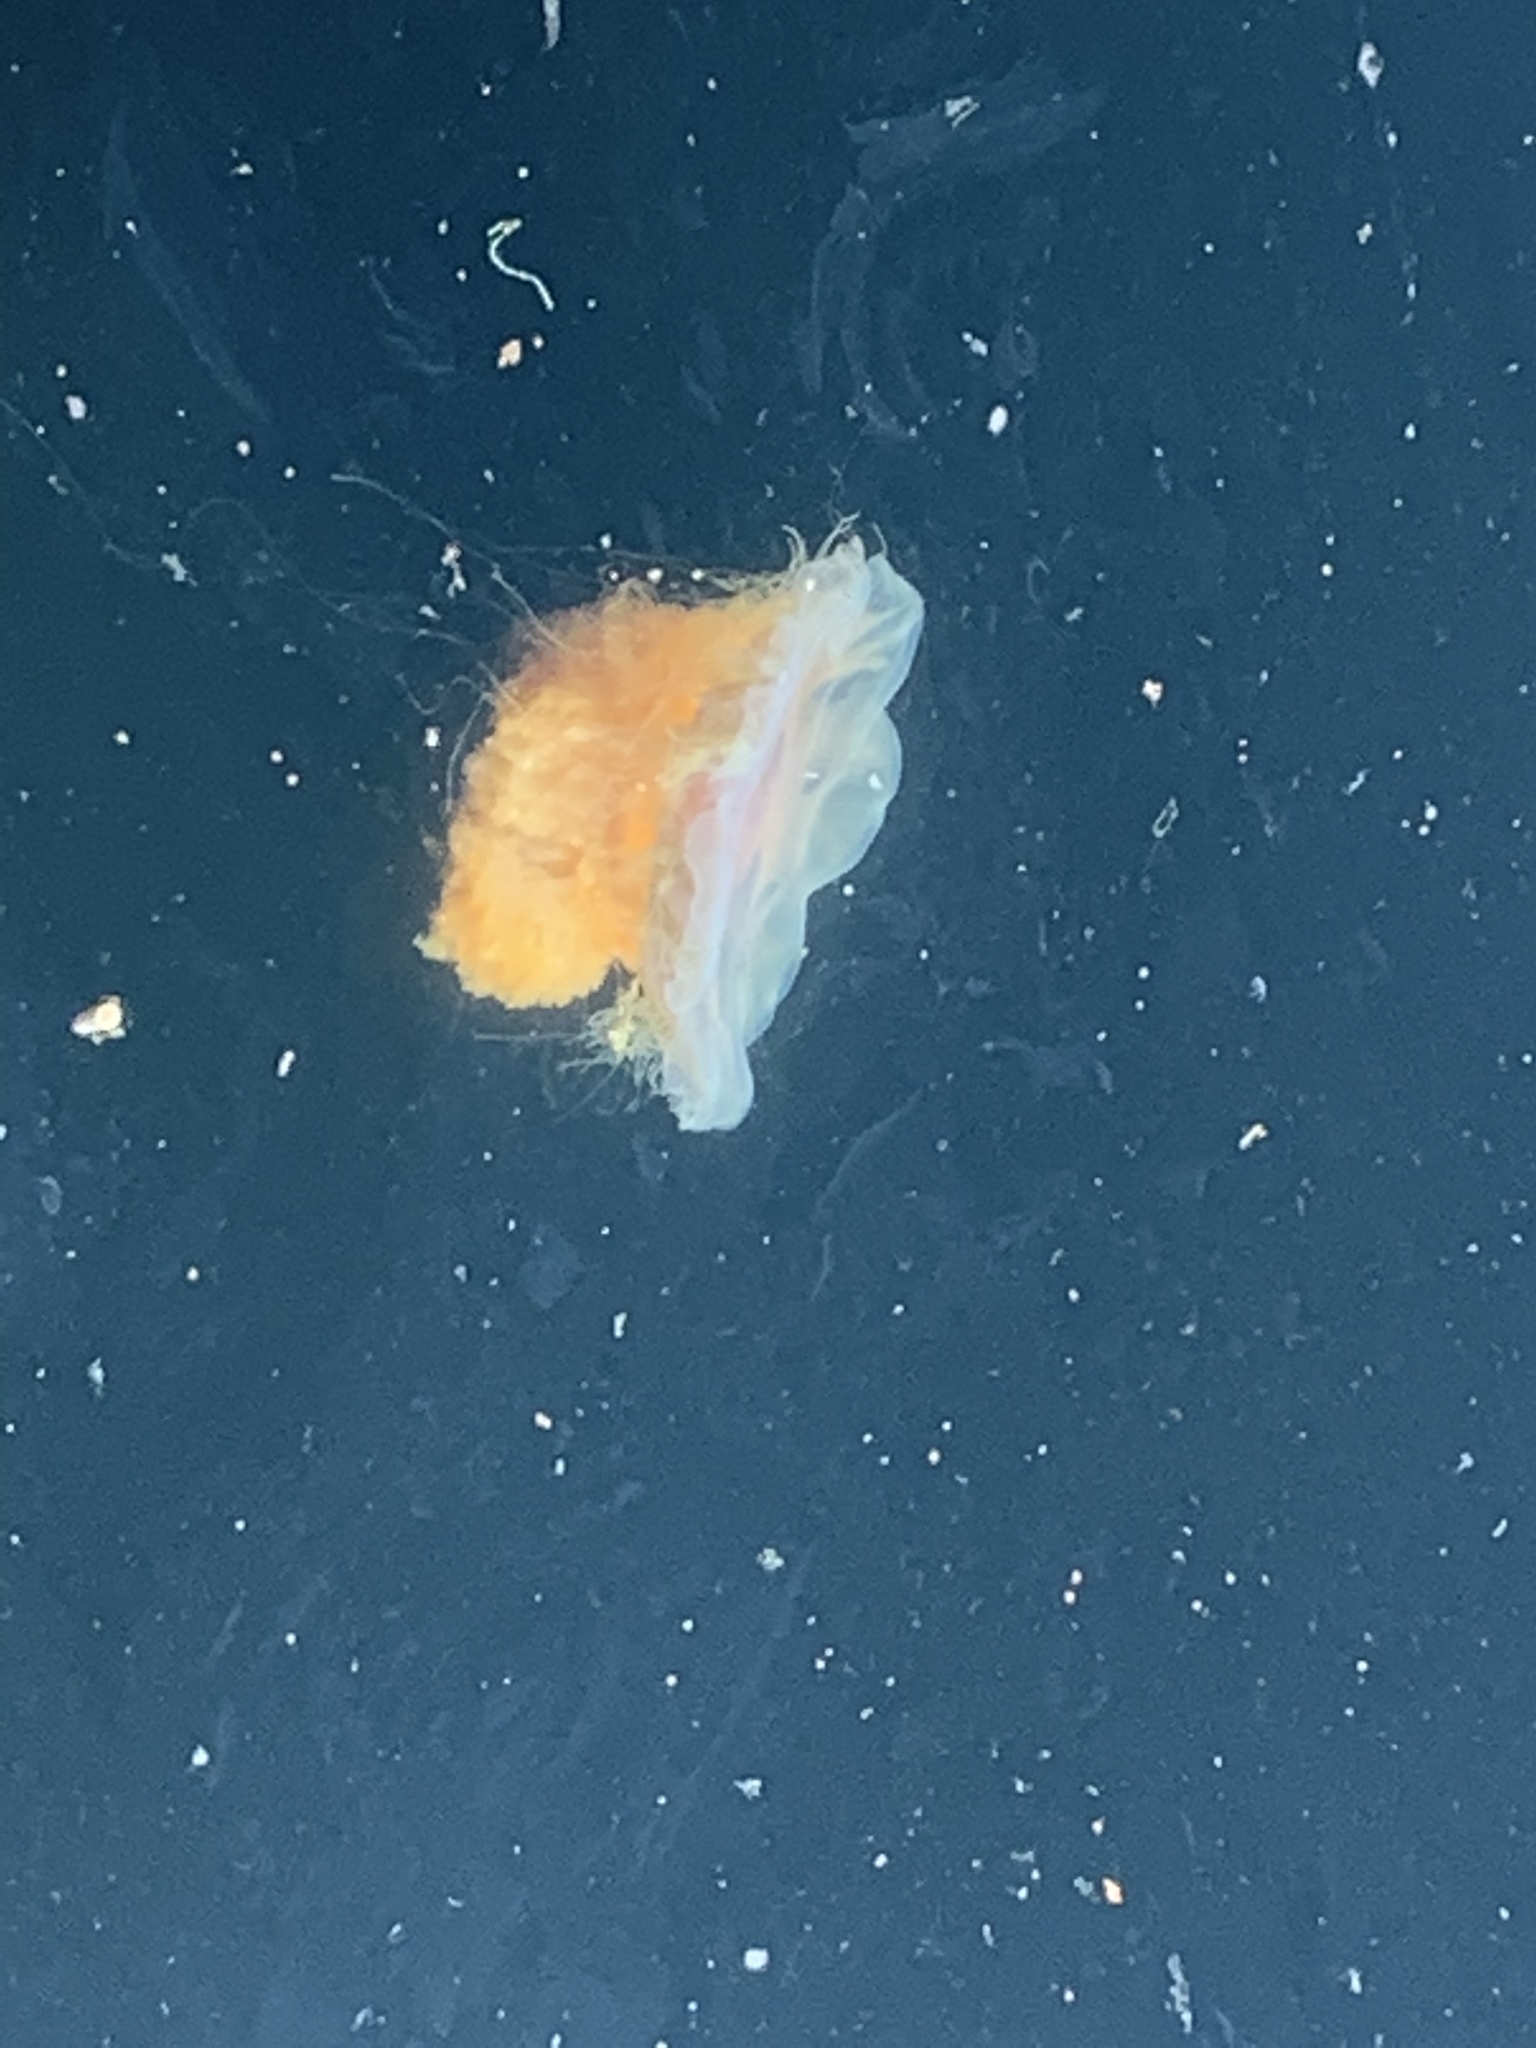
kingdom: Animalia
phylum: Cnidaria
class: Scyphozoa
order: Semaeostomeae
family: Cyaneidae
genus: Cyanea
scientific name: Cyanea capillata
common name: Lion's mane jellyfish
